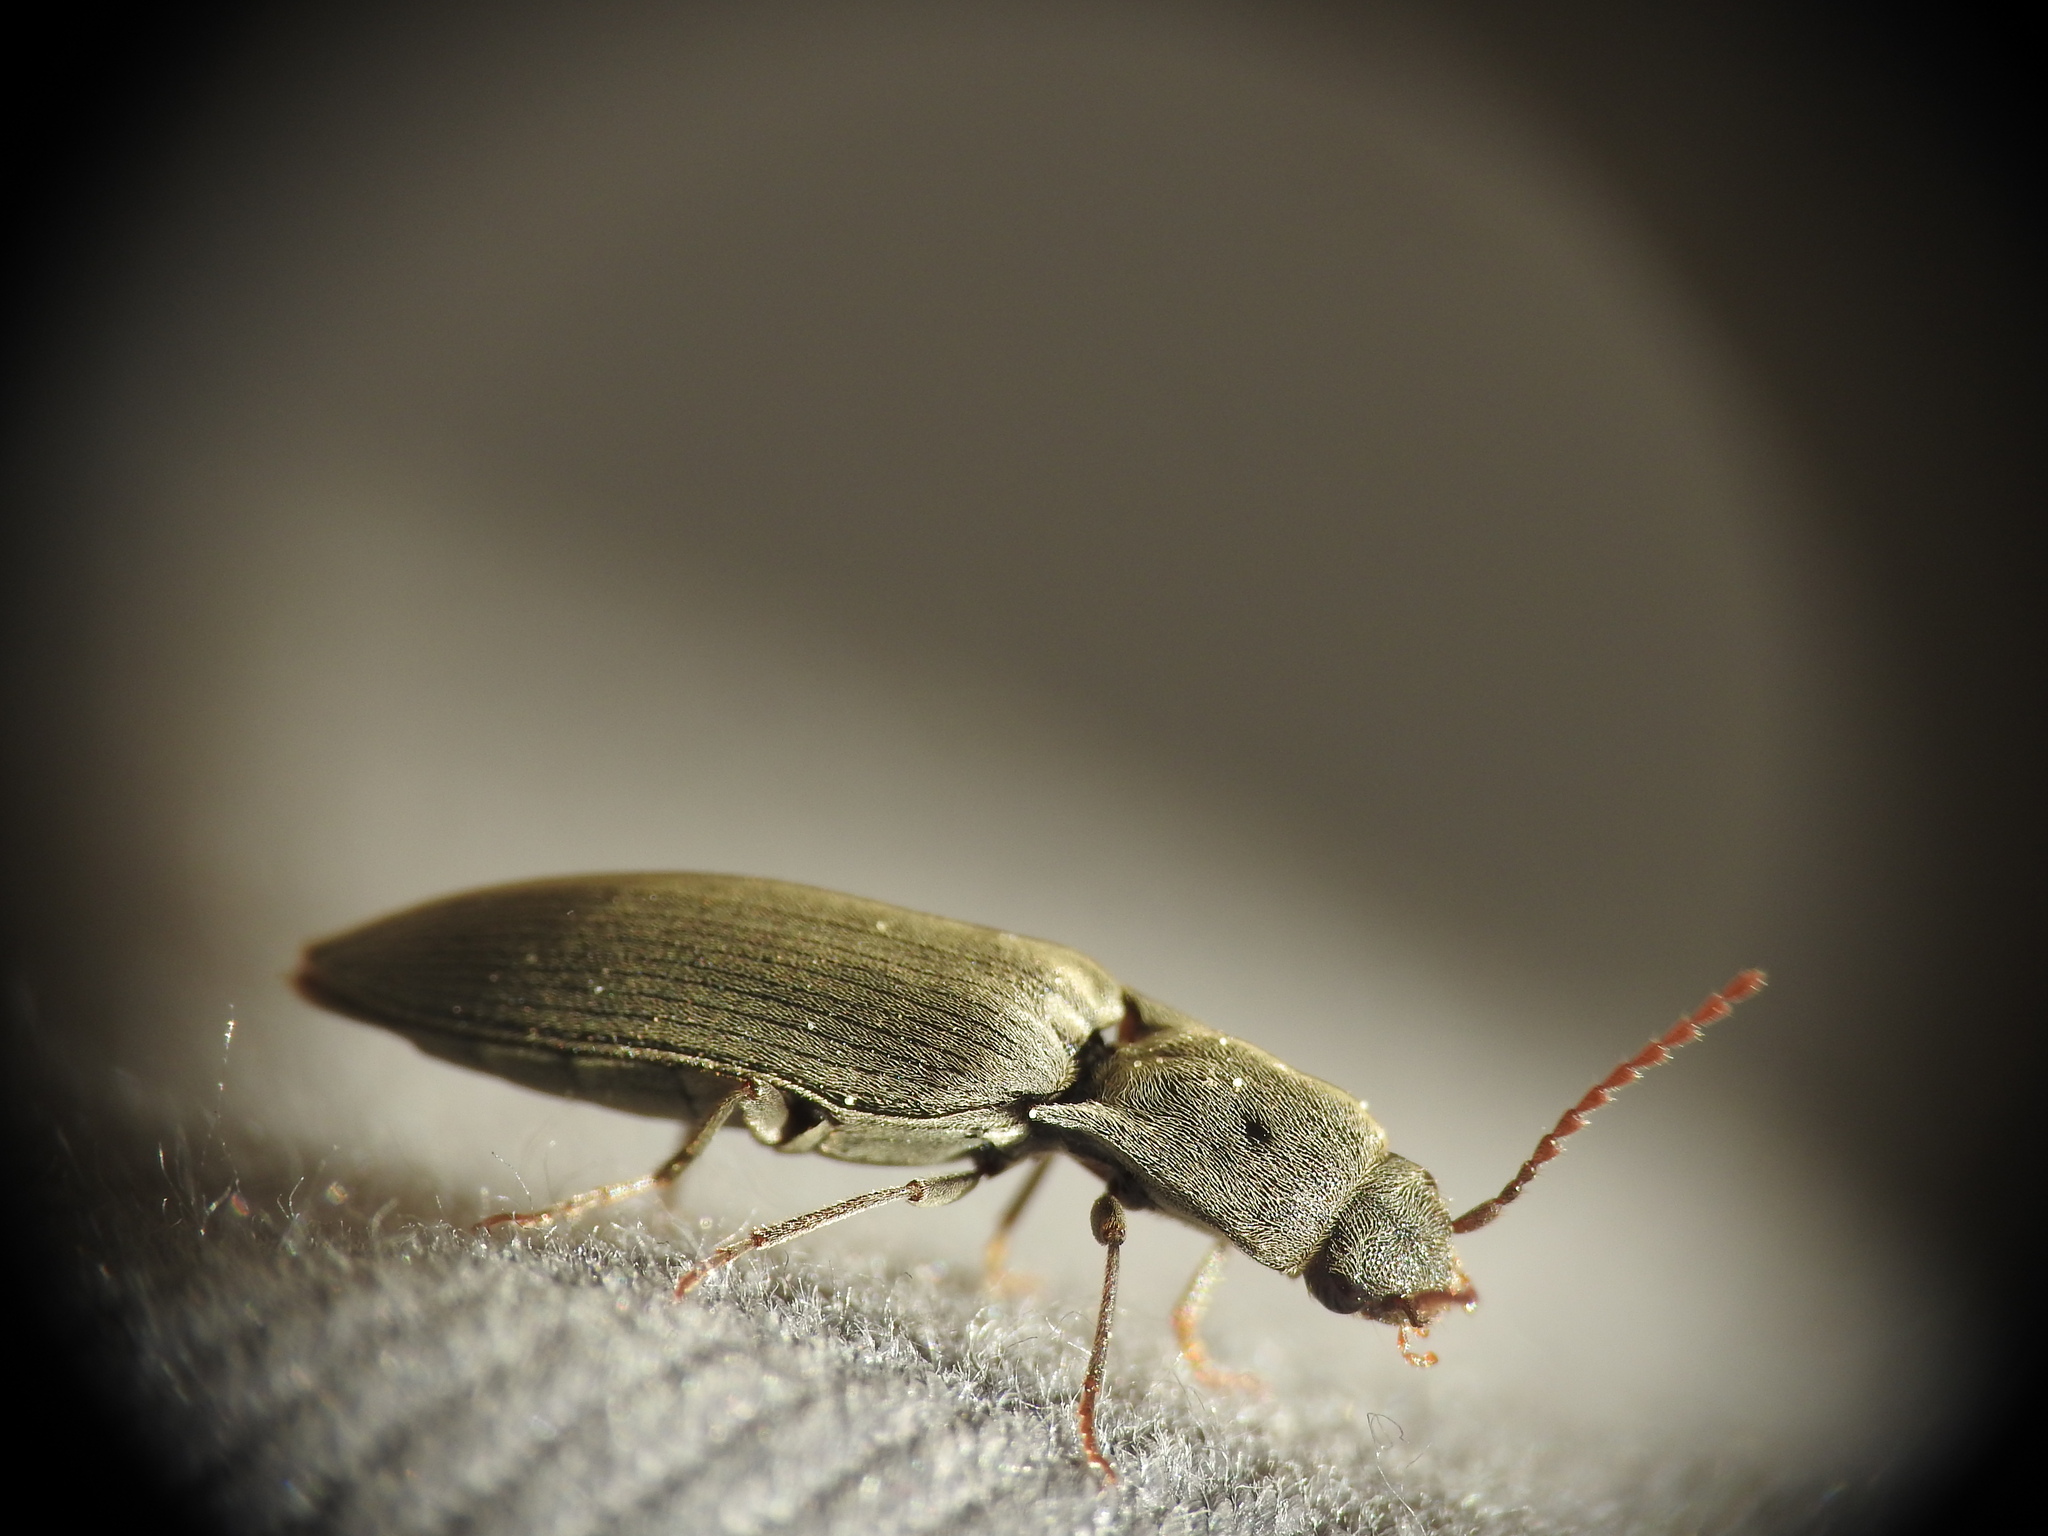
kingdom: Animalia
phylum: Arthropoda
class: Insecta
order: Coleoptera
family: Elateridae
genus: Agriotes
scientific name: Agriotes pilosellus
